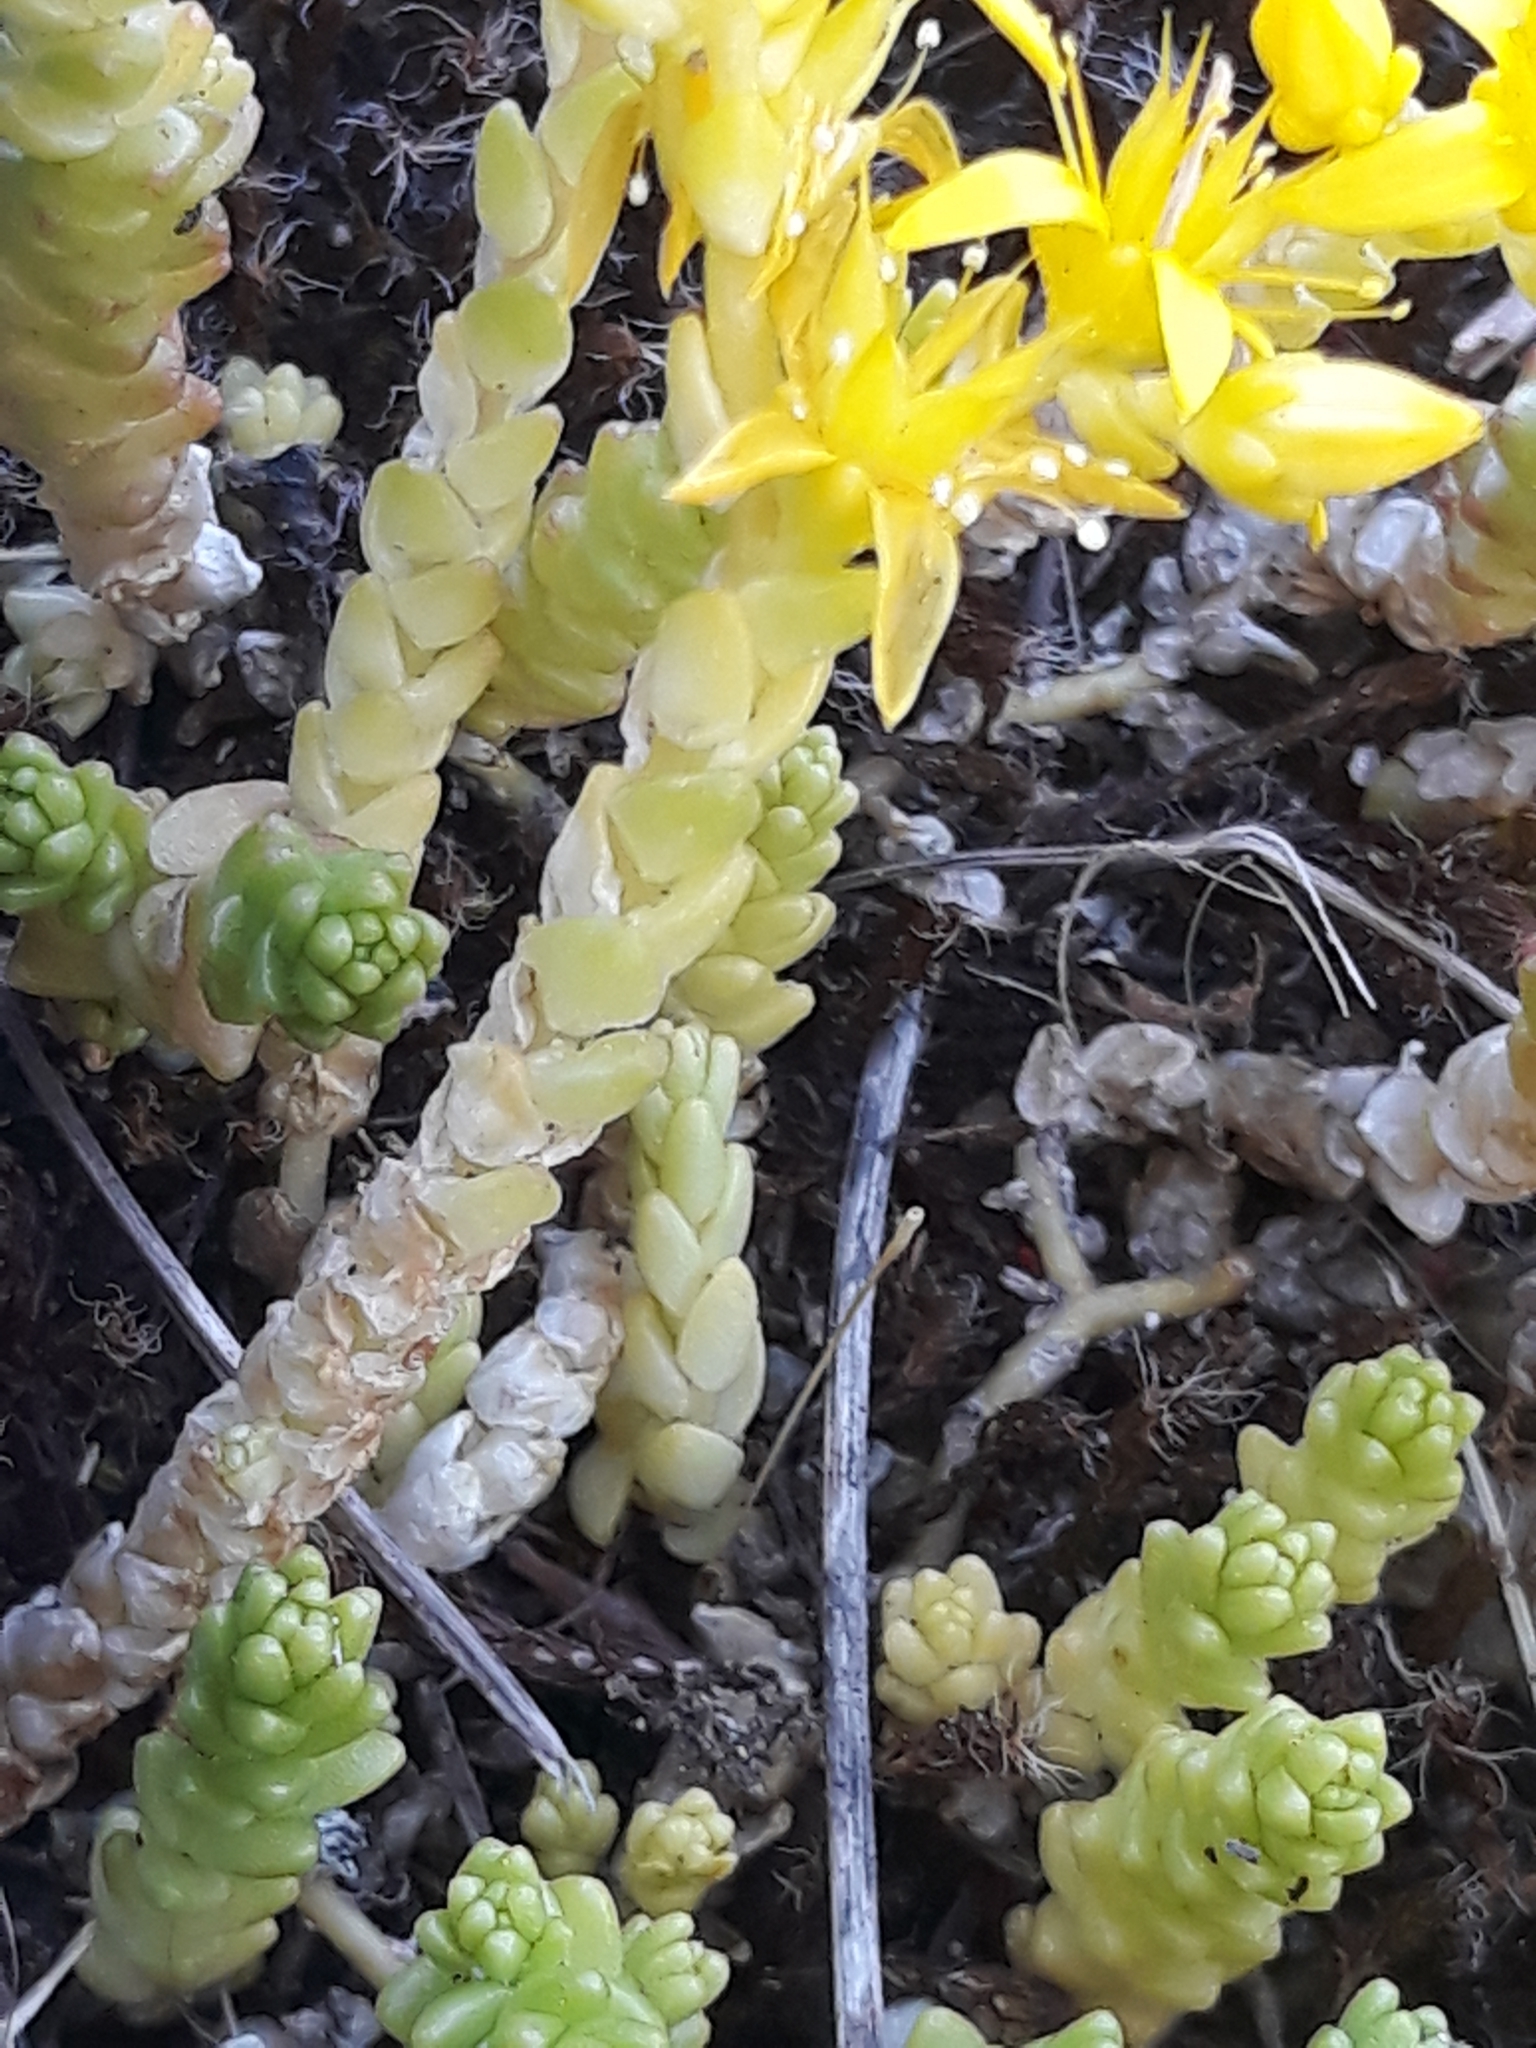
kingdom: Plantae
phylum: Tracheophyta
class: Magnoliopsida
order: Saxifragales
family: Crassulaceae
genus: Sedum
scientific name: Sedum acre
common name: Biting stonecrop
